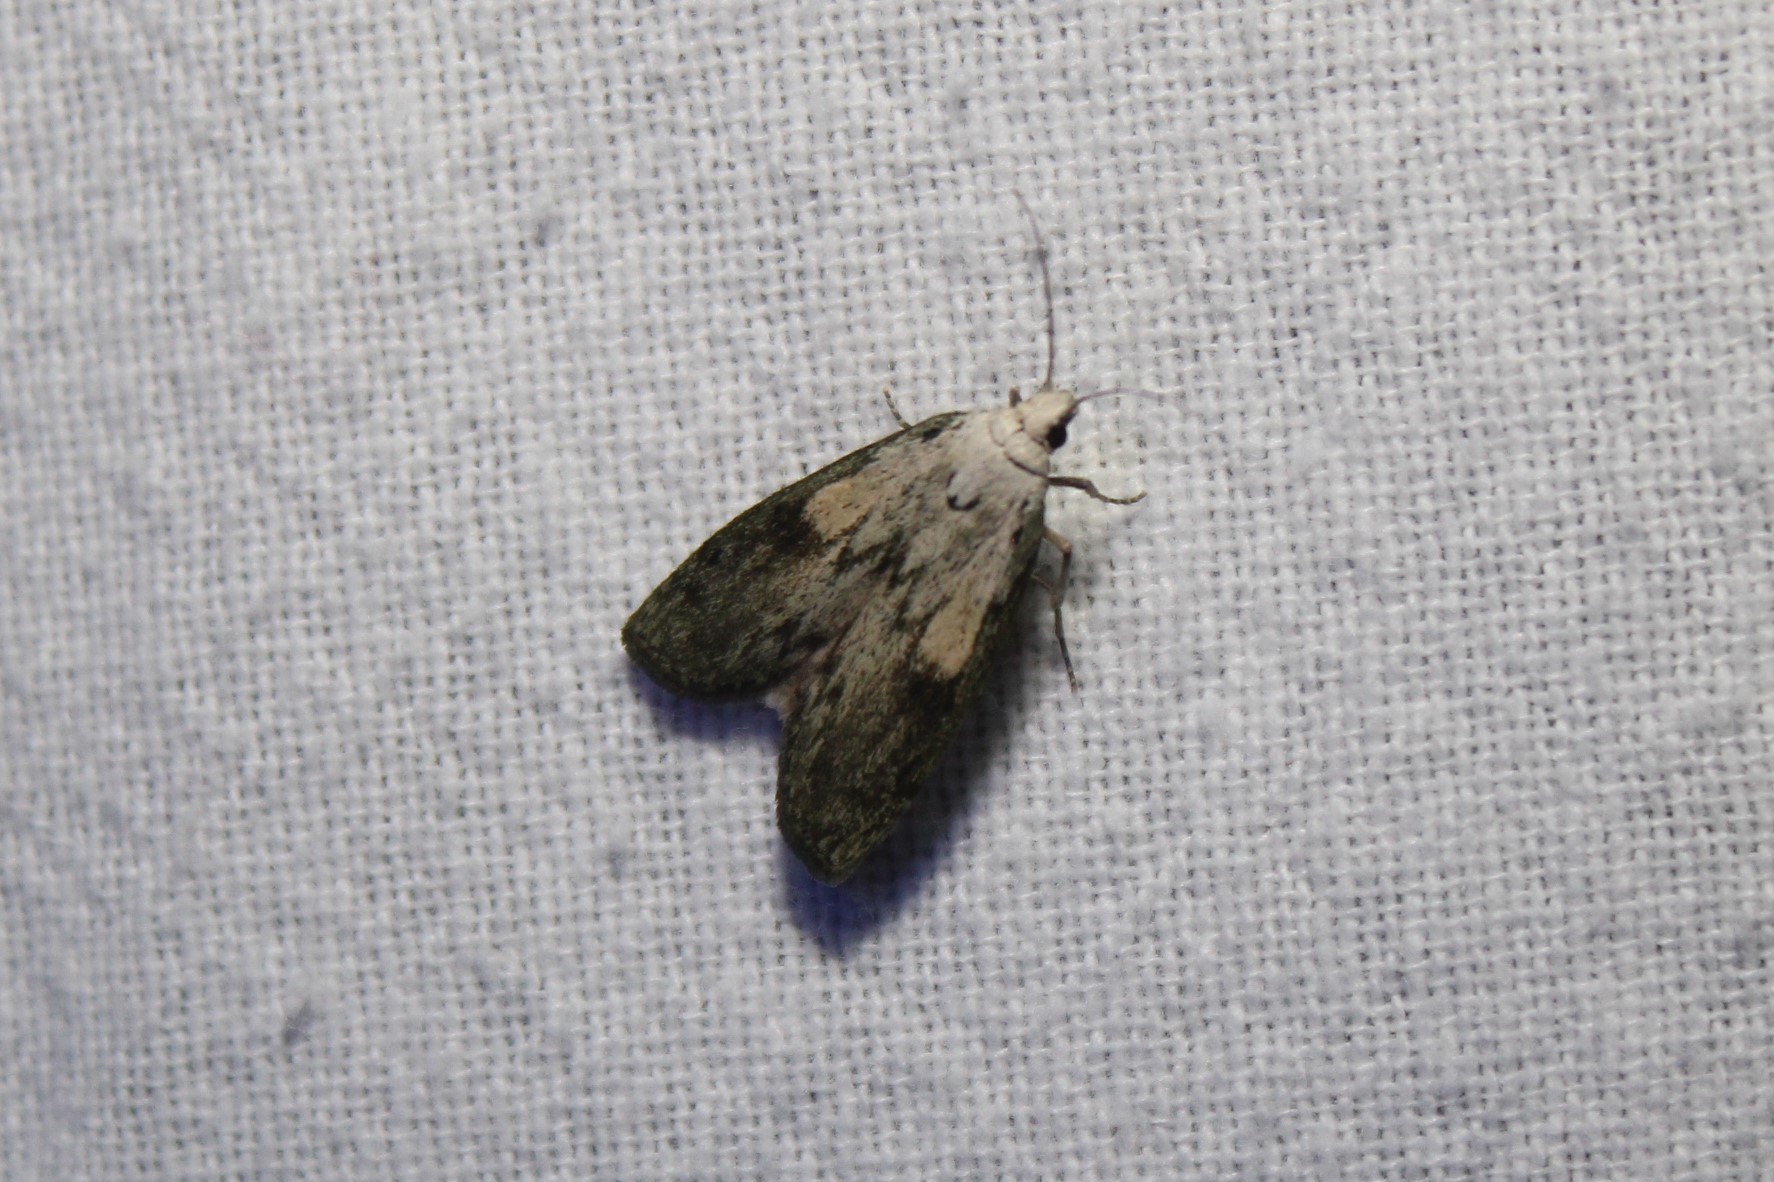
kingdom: Animalia
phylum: Arthropoda
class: Insecta
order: Lepidoptera
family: Pyralidae
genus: Aphomia
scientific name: Aphomia sociella
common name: Bee moth
